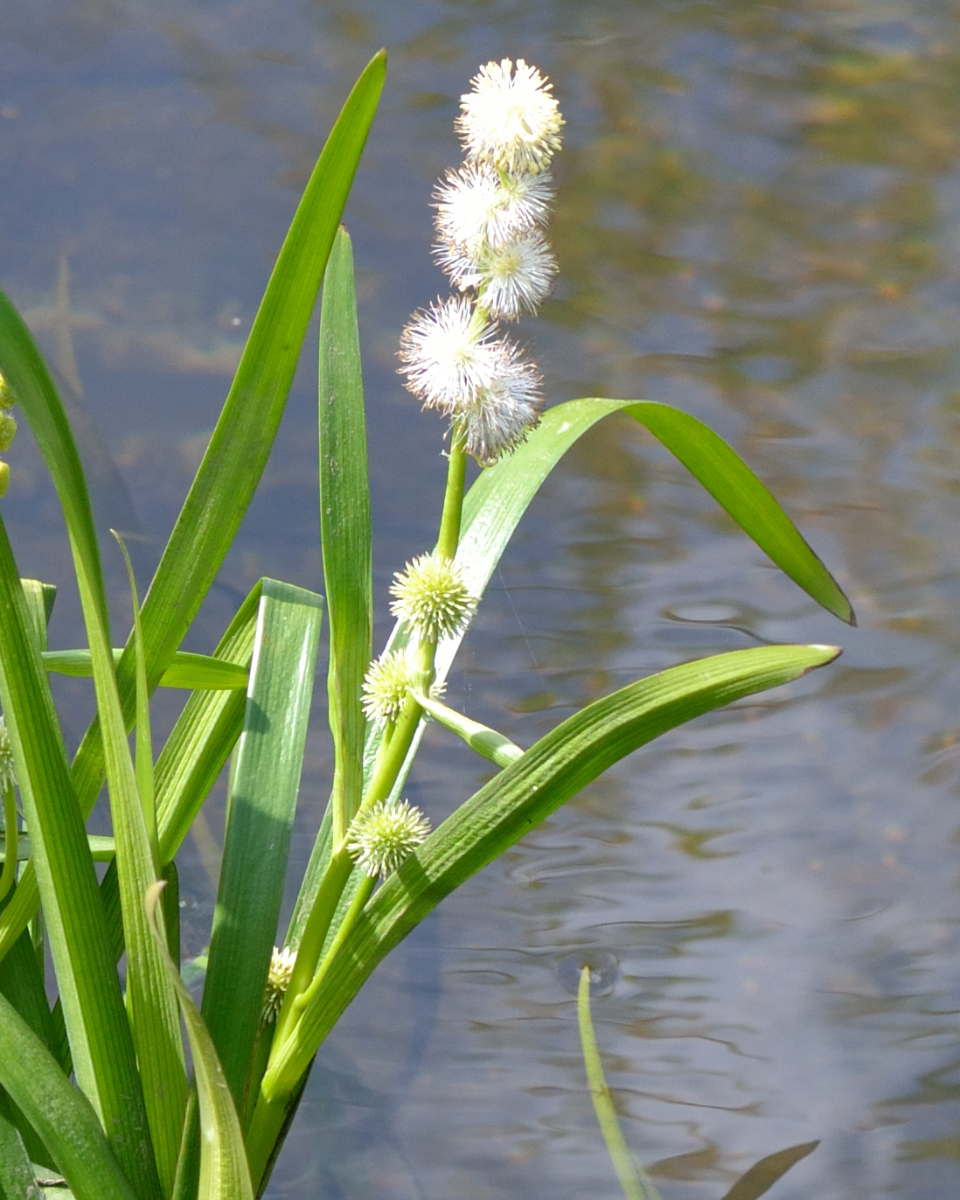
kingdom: Plantae
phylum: Tracheophyta
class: Liliopsida
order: Poales
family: Typhaceae
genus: Sparganium
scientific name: Sparganium emersum
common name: Unbranched bur-reed
